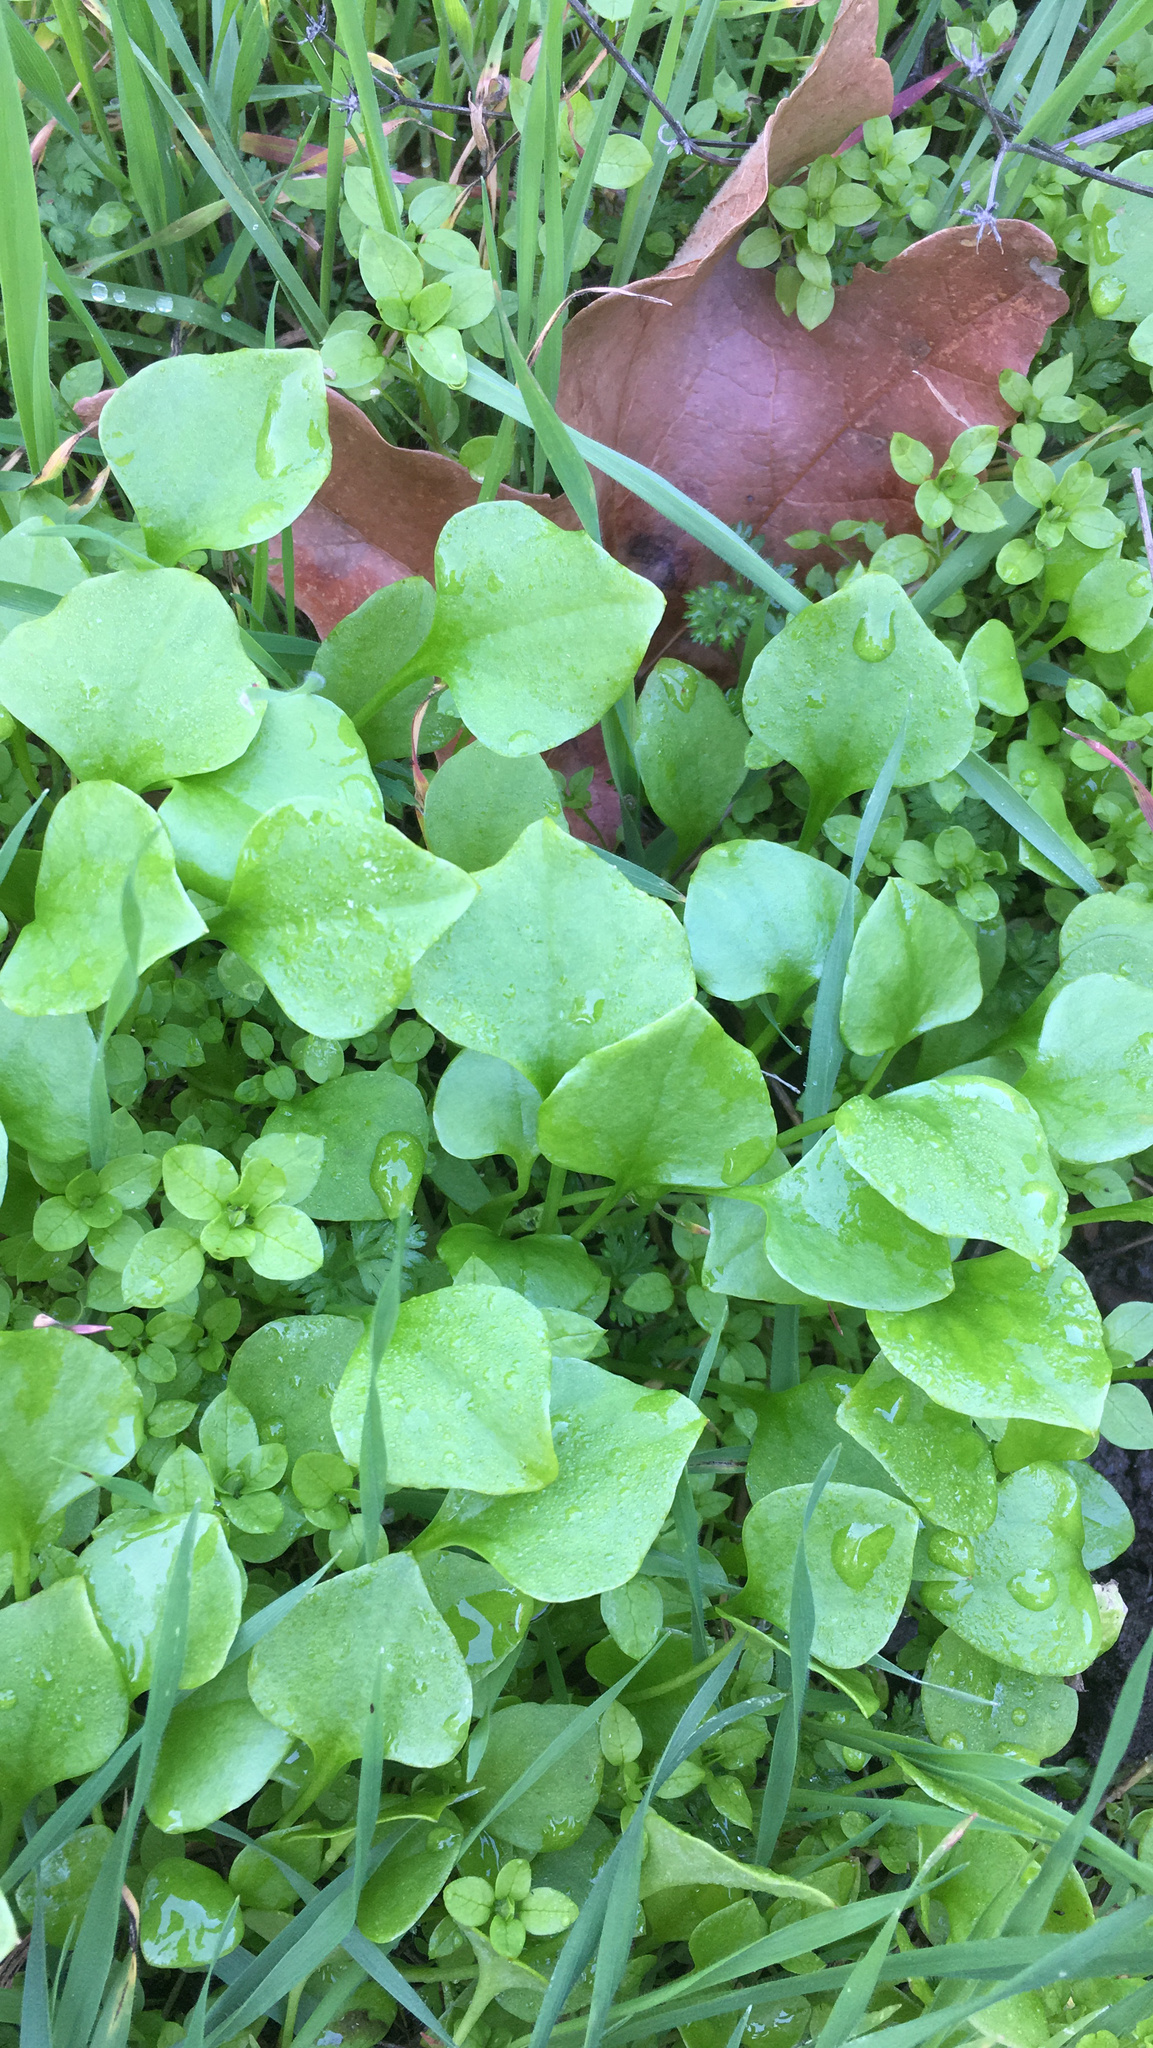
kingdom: Plantae
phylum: Tracheophyta
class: Magnoliopsida
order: Caryophyllales
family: Montiaceae
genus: Claytonia
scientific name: Claytonia perfoliata
